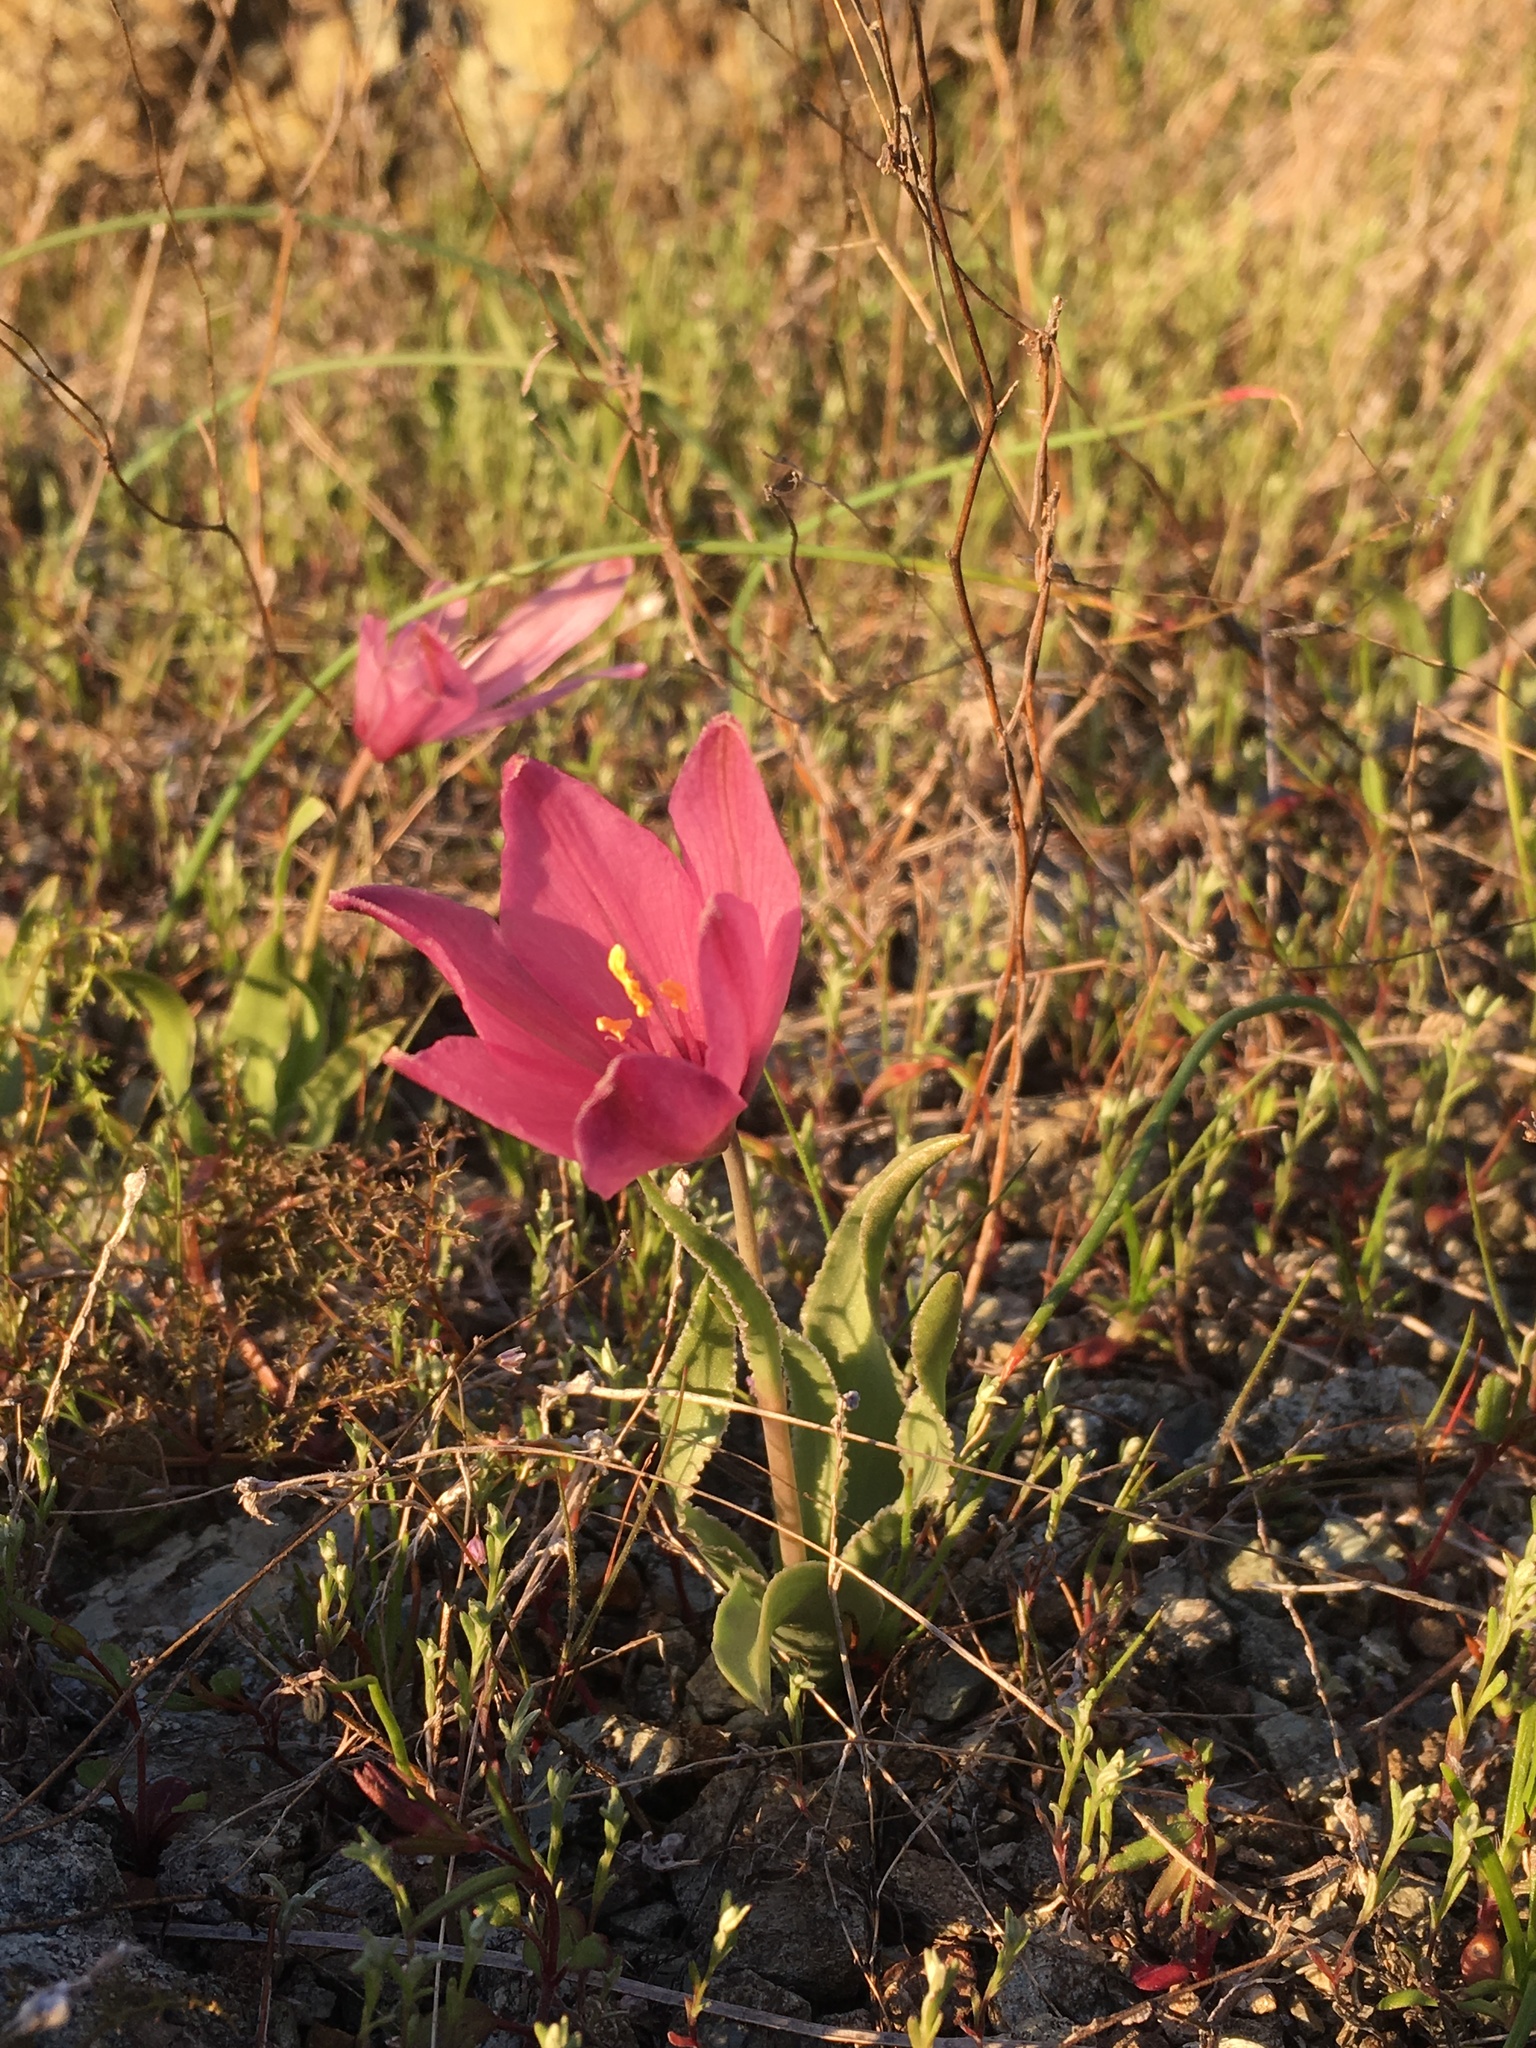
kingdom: Plantae
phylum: Tracheophyta
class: Liliopsida
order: Liliales
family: Liliaceae
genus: Fritillaria
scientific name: Fritillaria pluriflora
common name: Adobe-lily
